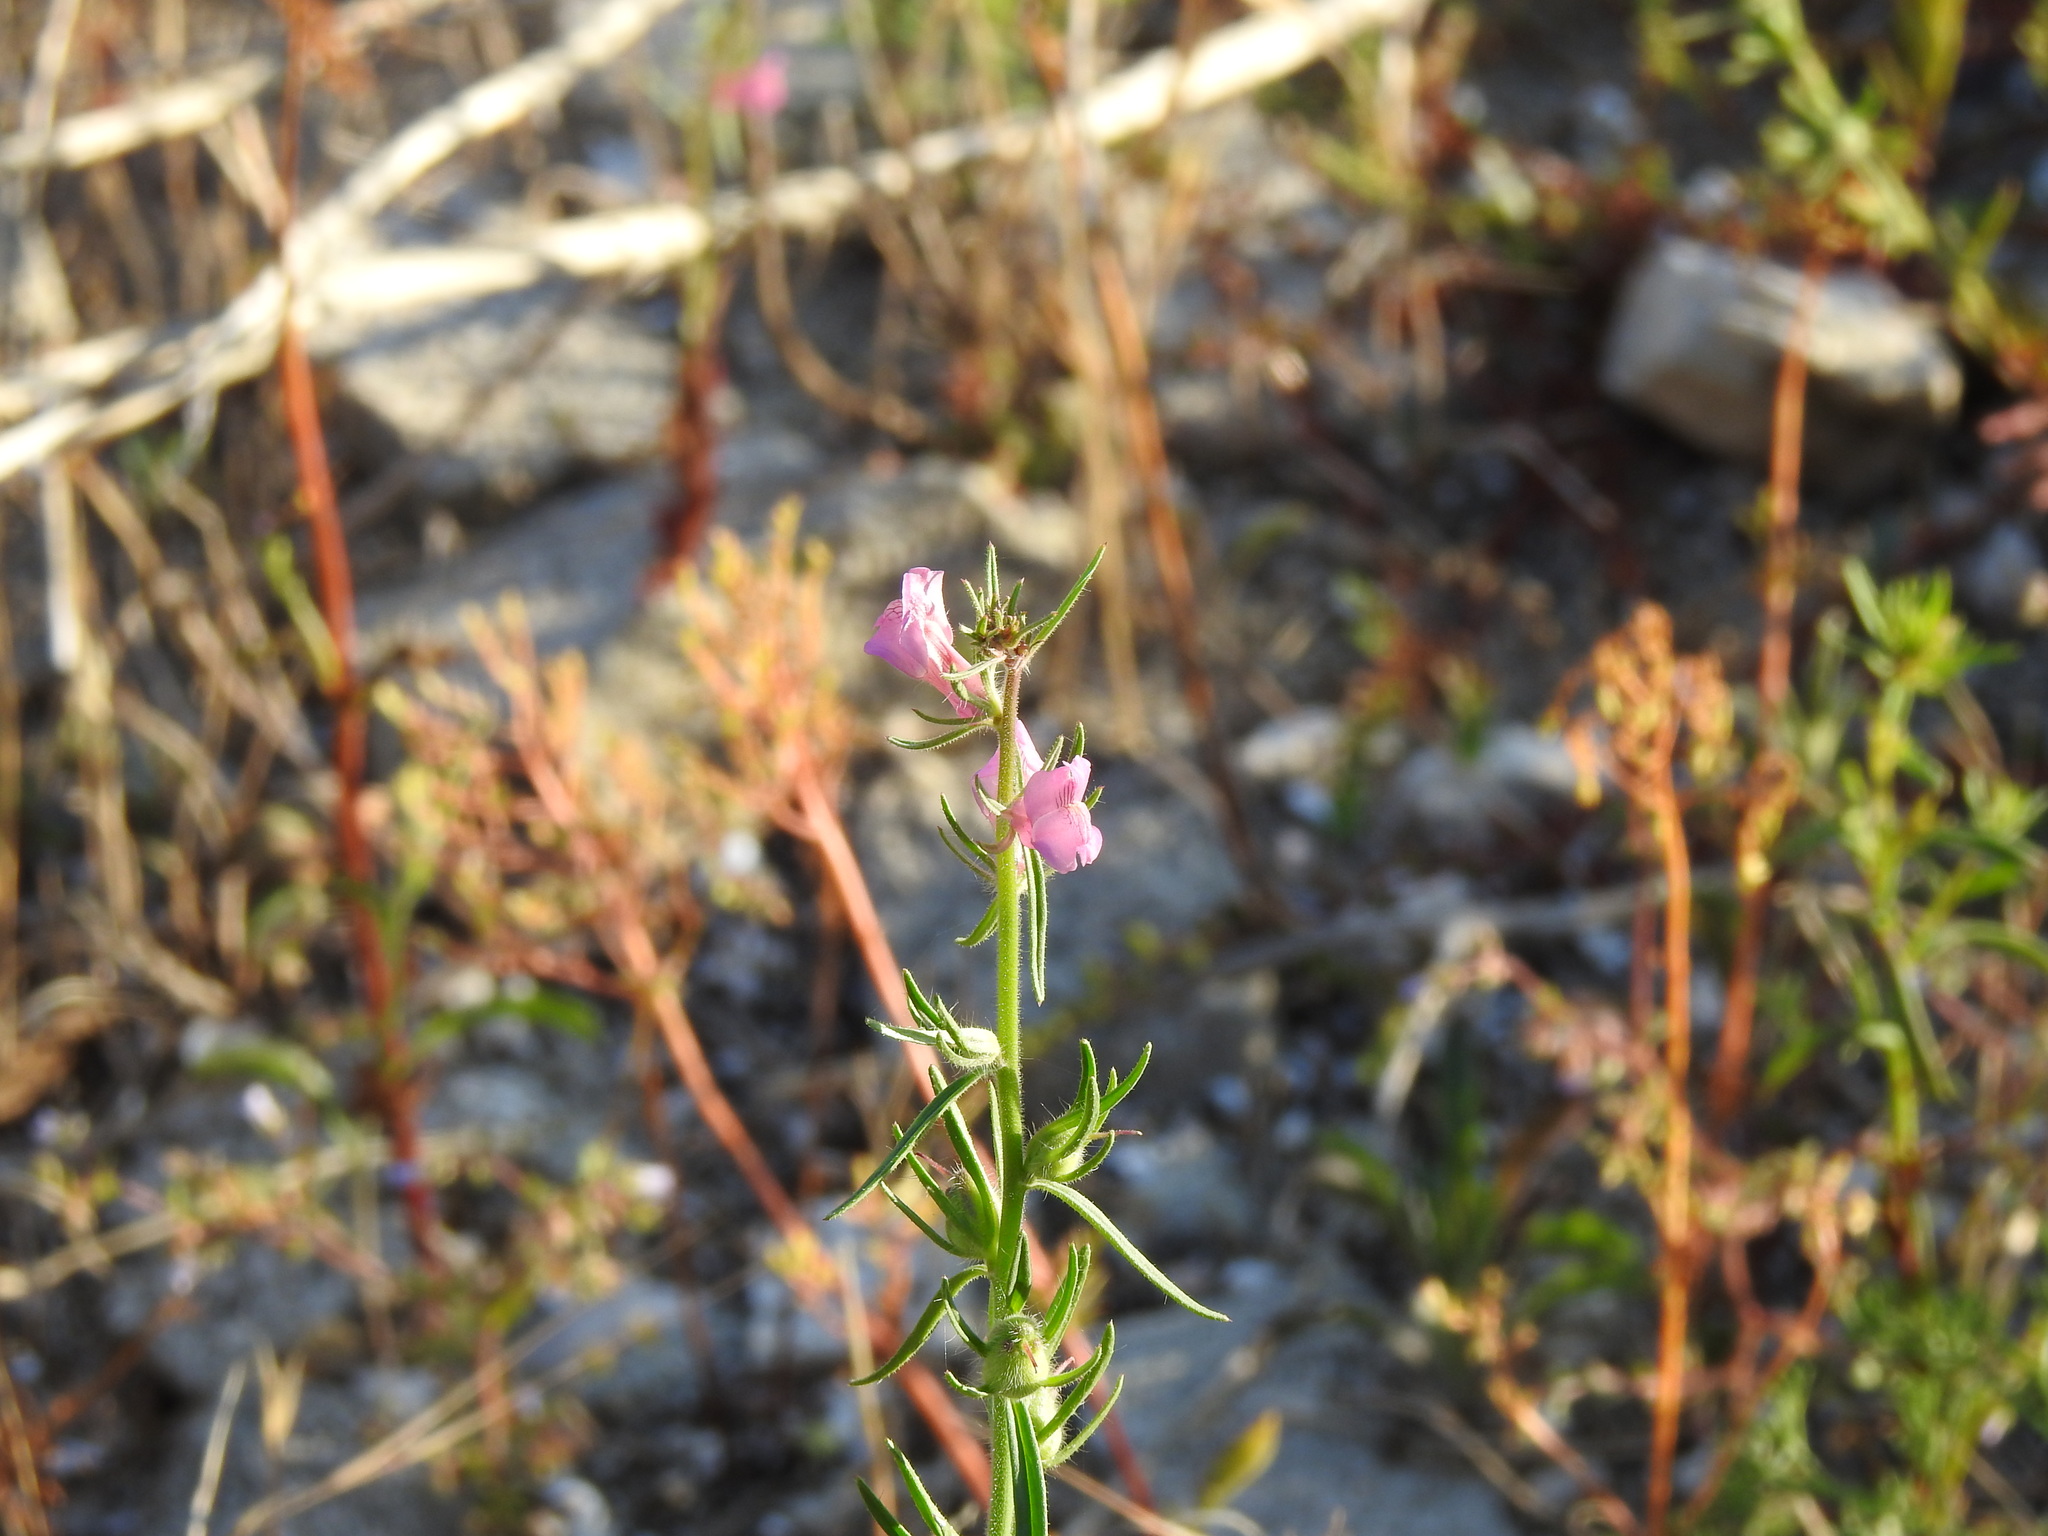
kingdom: Plantae
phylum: Tracheophyta
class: Magnoliopsida
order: Lamiales
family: Plantaginaceae
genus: Misopates
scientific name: Misopates orontium
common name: Weasel's-snout
